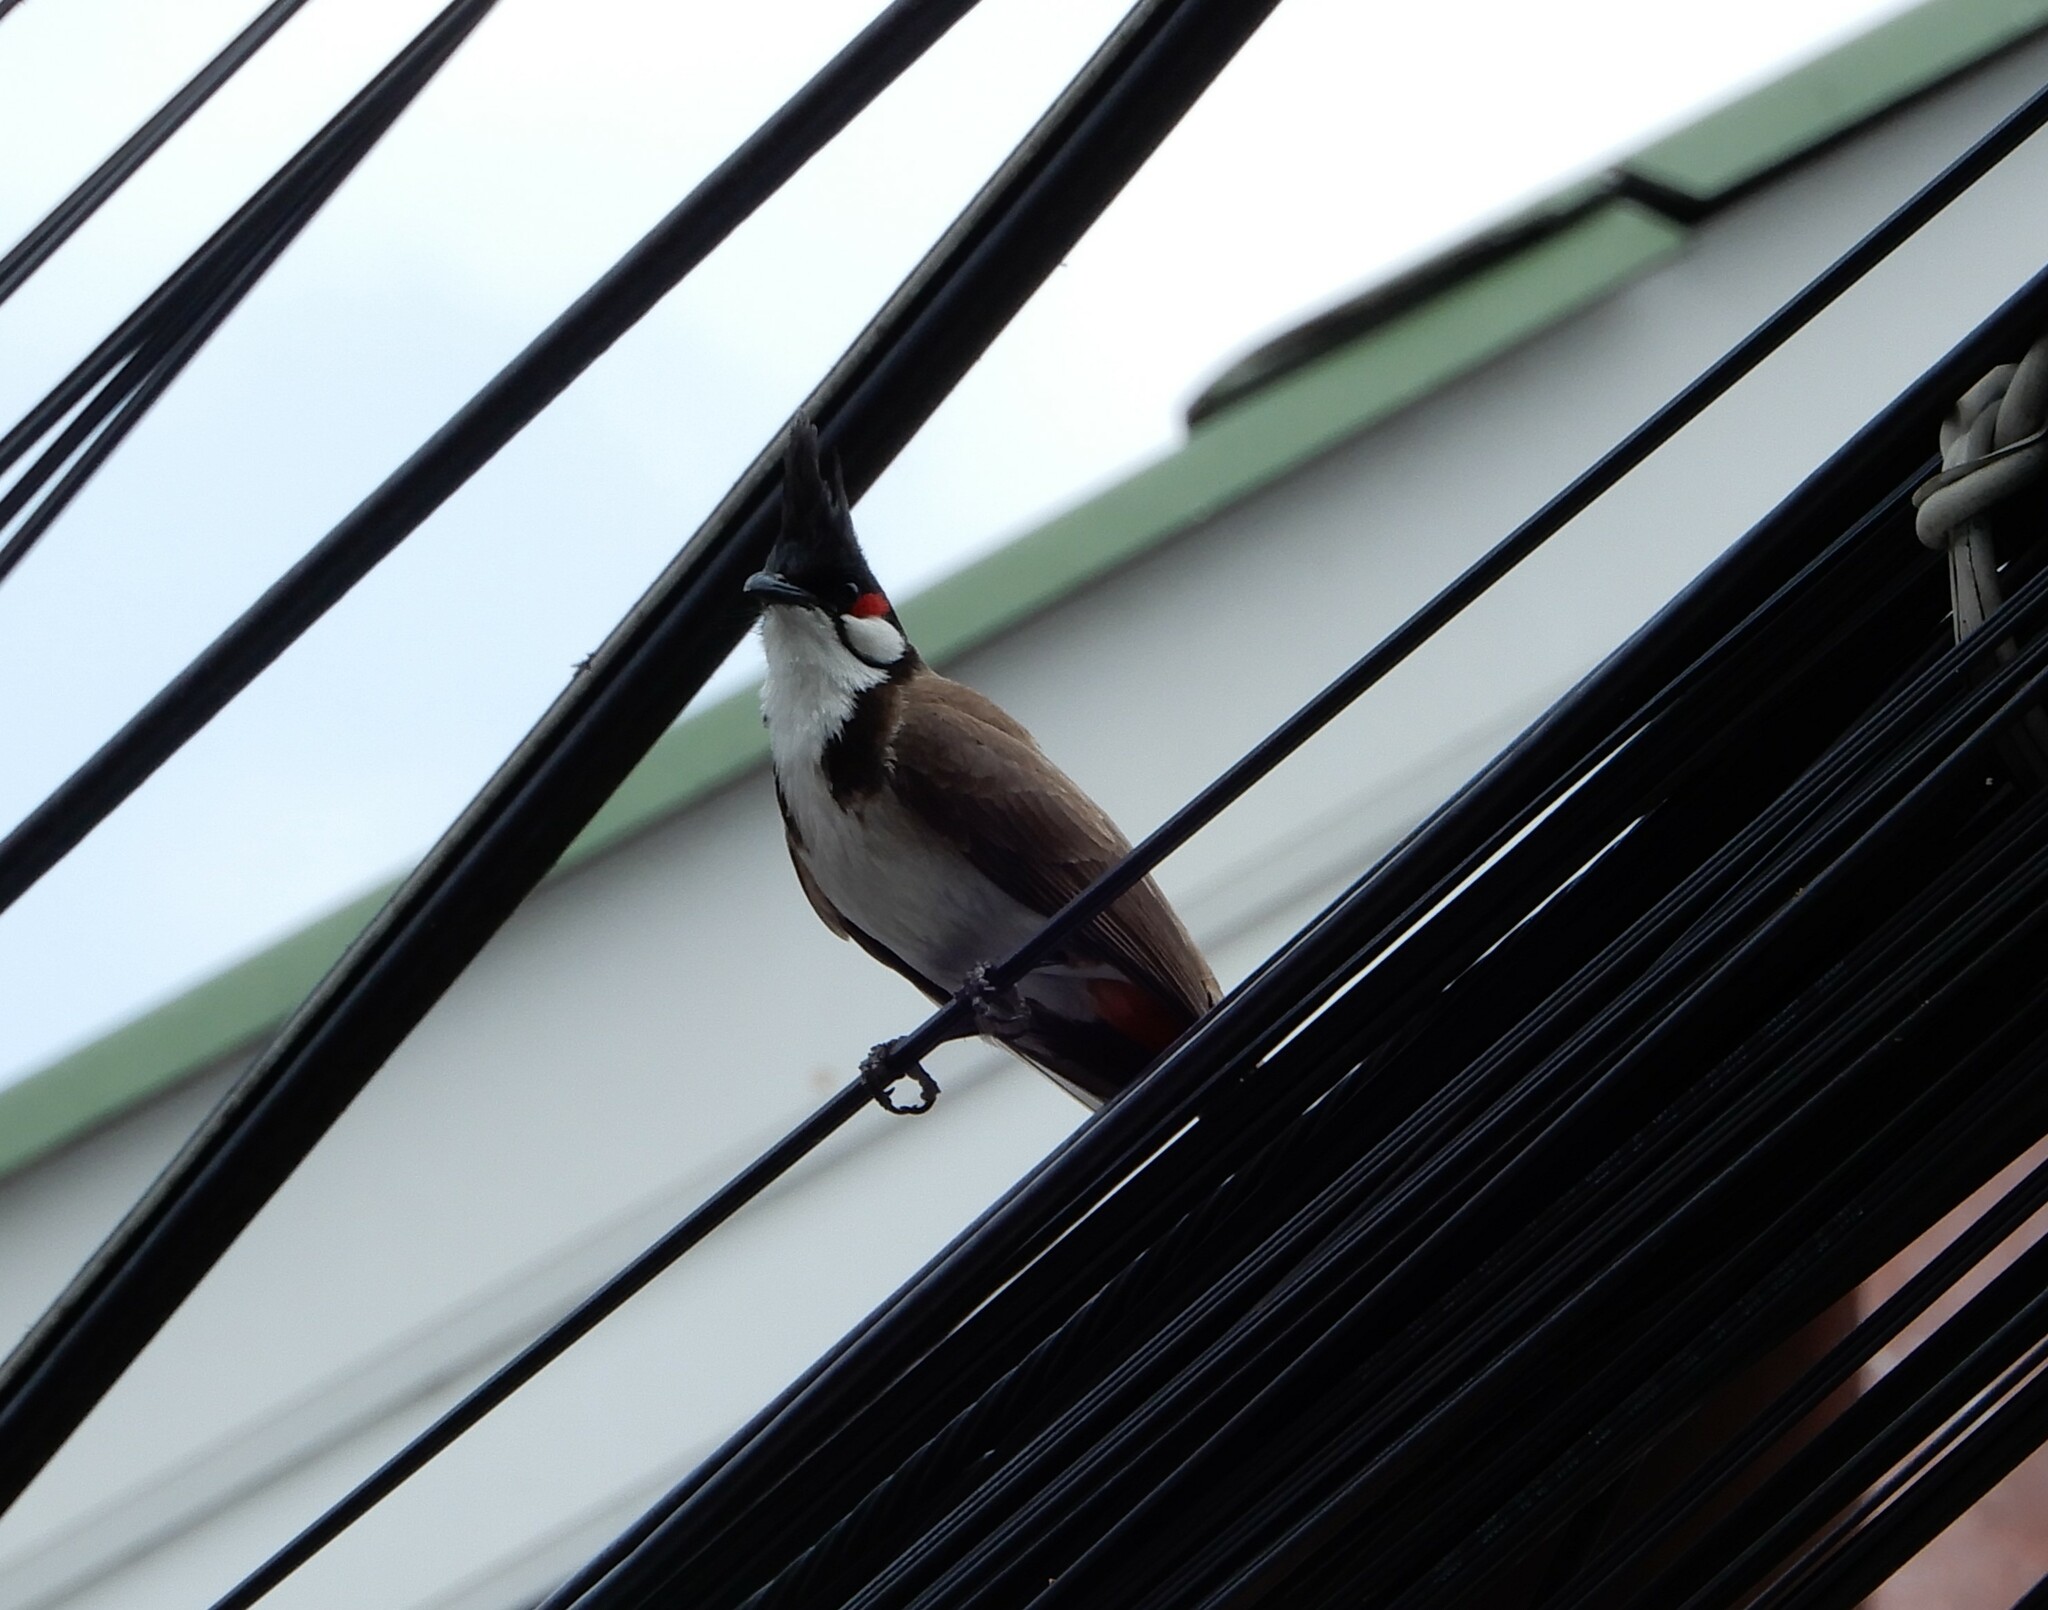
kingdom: Animalia
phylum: Chordata
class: Aves
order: Passeriformes
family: Pycnonotidae
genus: Pycnonotus
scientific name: Pycnonotus jocosus
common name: Red-whiskered bulbul
